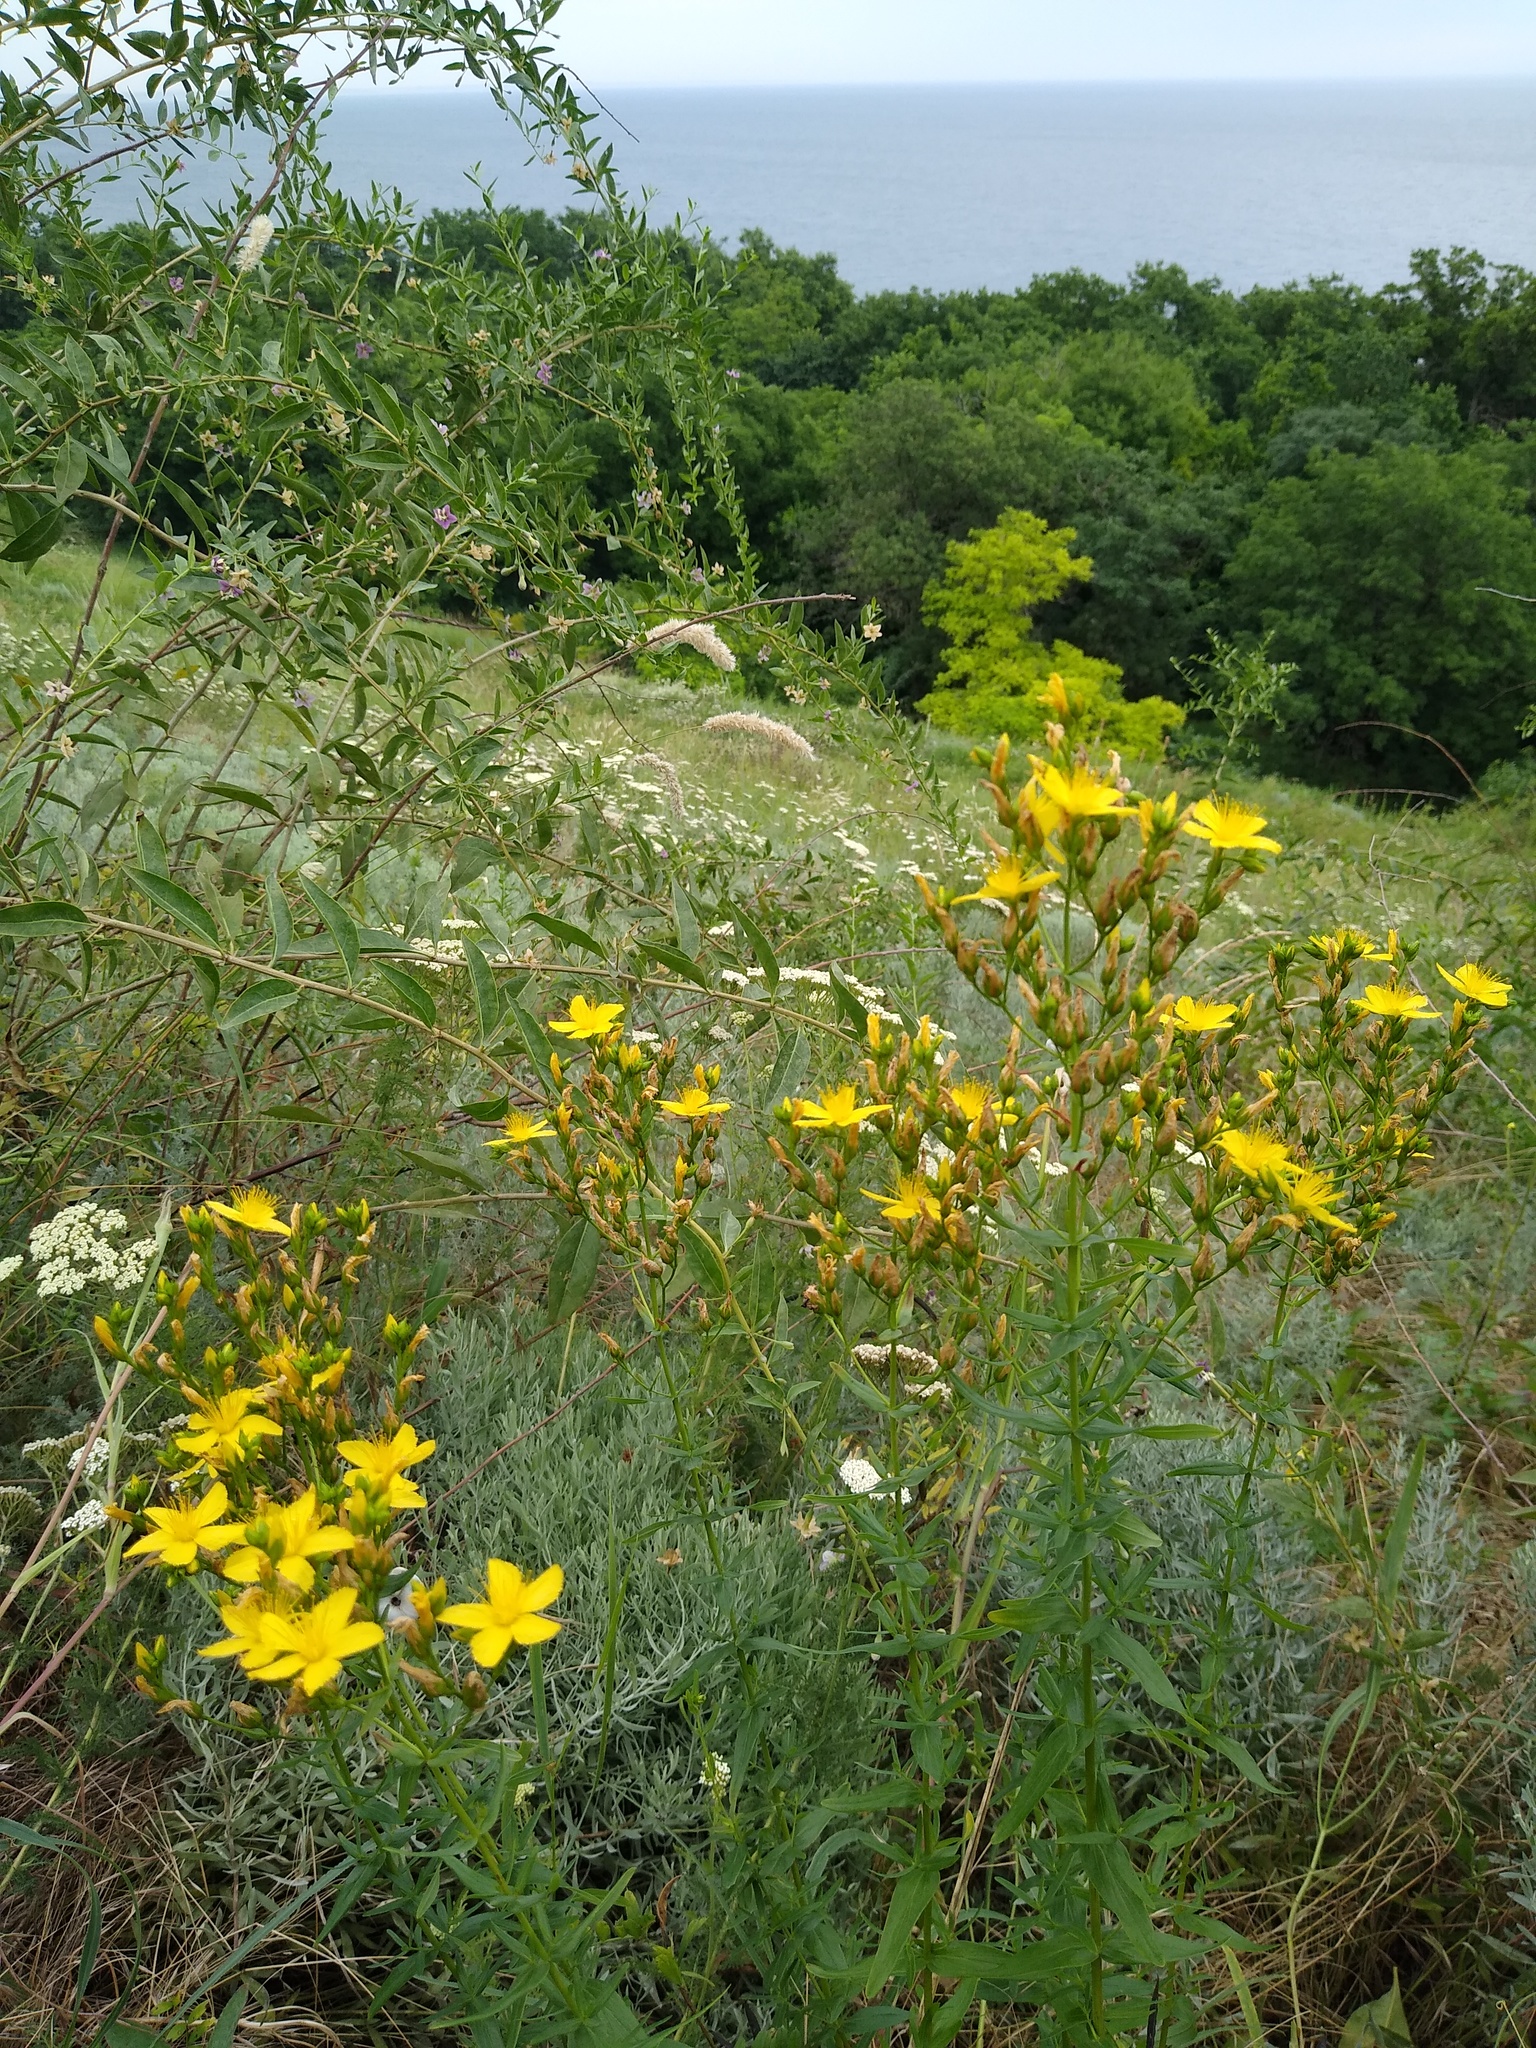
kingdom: Plantae
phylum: Tracheophyta
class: Magnoliopsida
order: Malpighiales
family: Hypericaceae
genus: Hypericum
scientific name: Hypericum elegans
